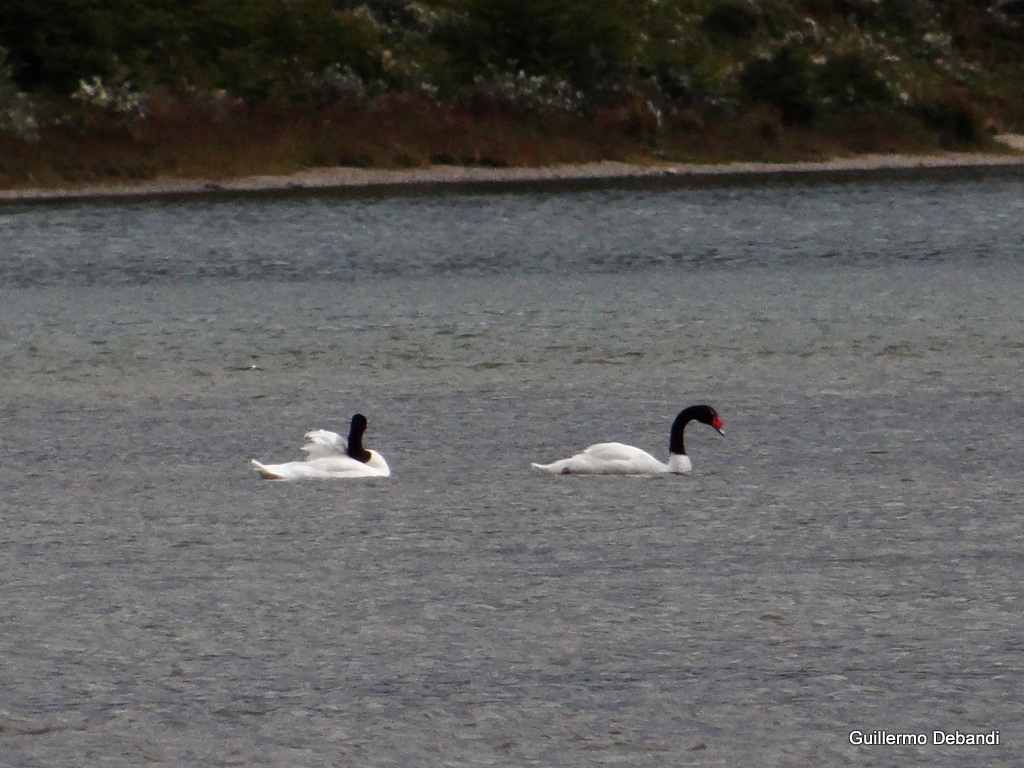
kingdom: Animalia
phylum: Chordata
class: Aves
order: Anseriformes
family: Anatidae
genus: Cygnus
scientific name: Cygnus melancoryphus
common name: Black-necked swan
